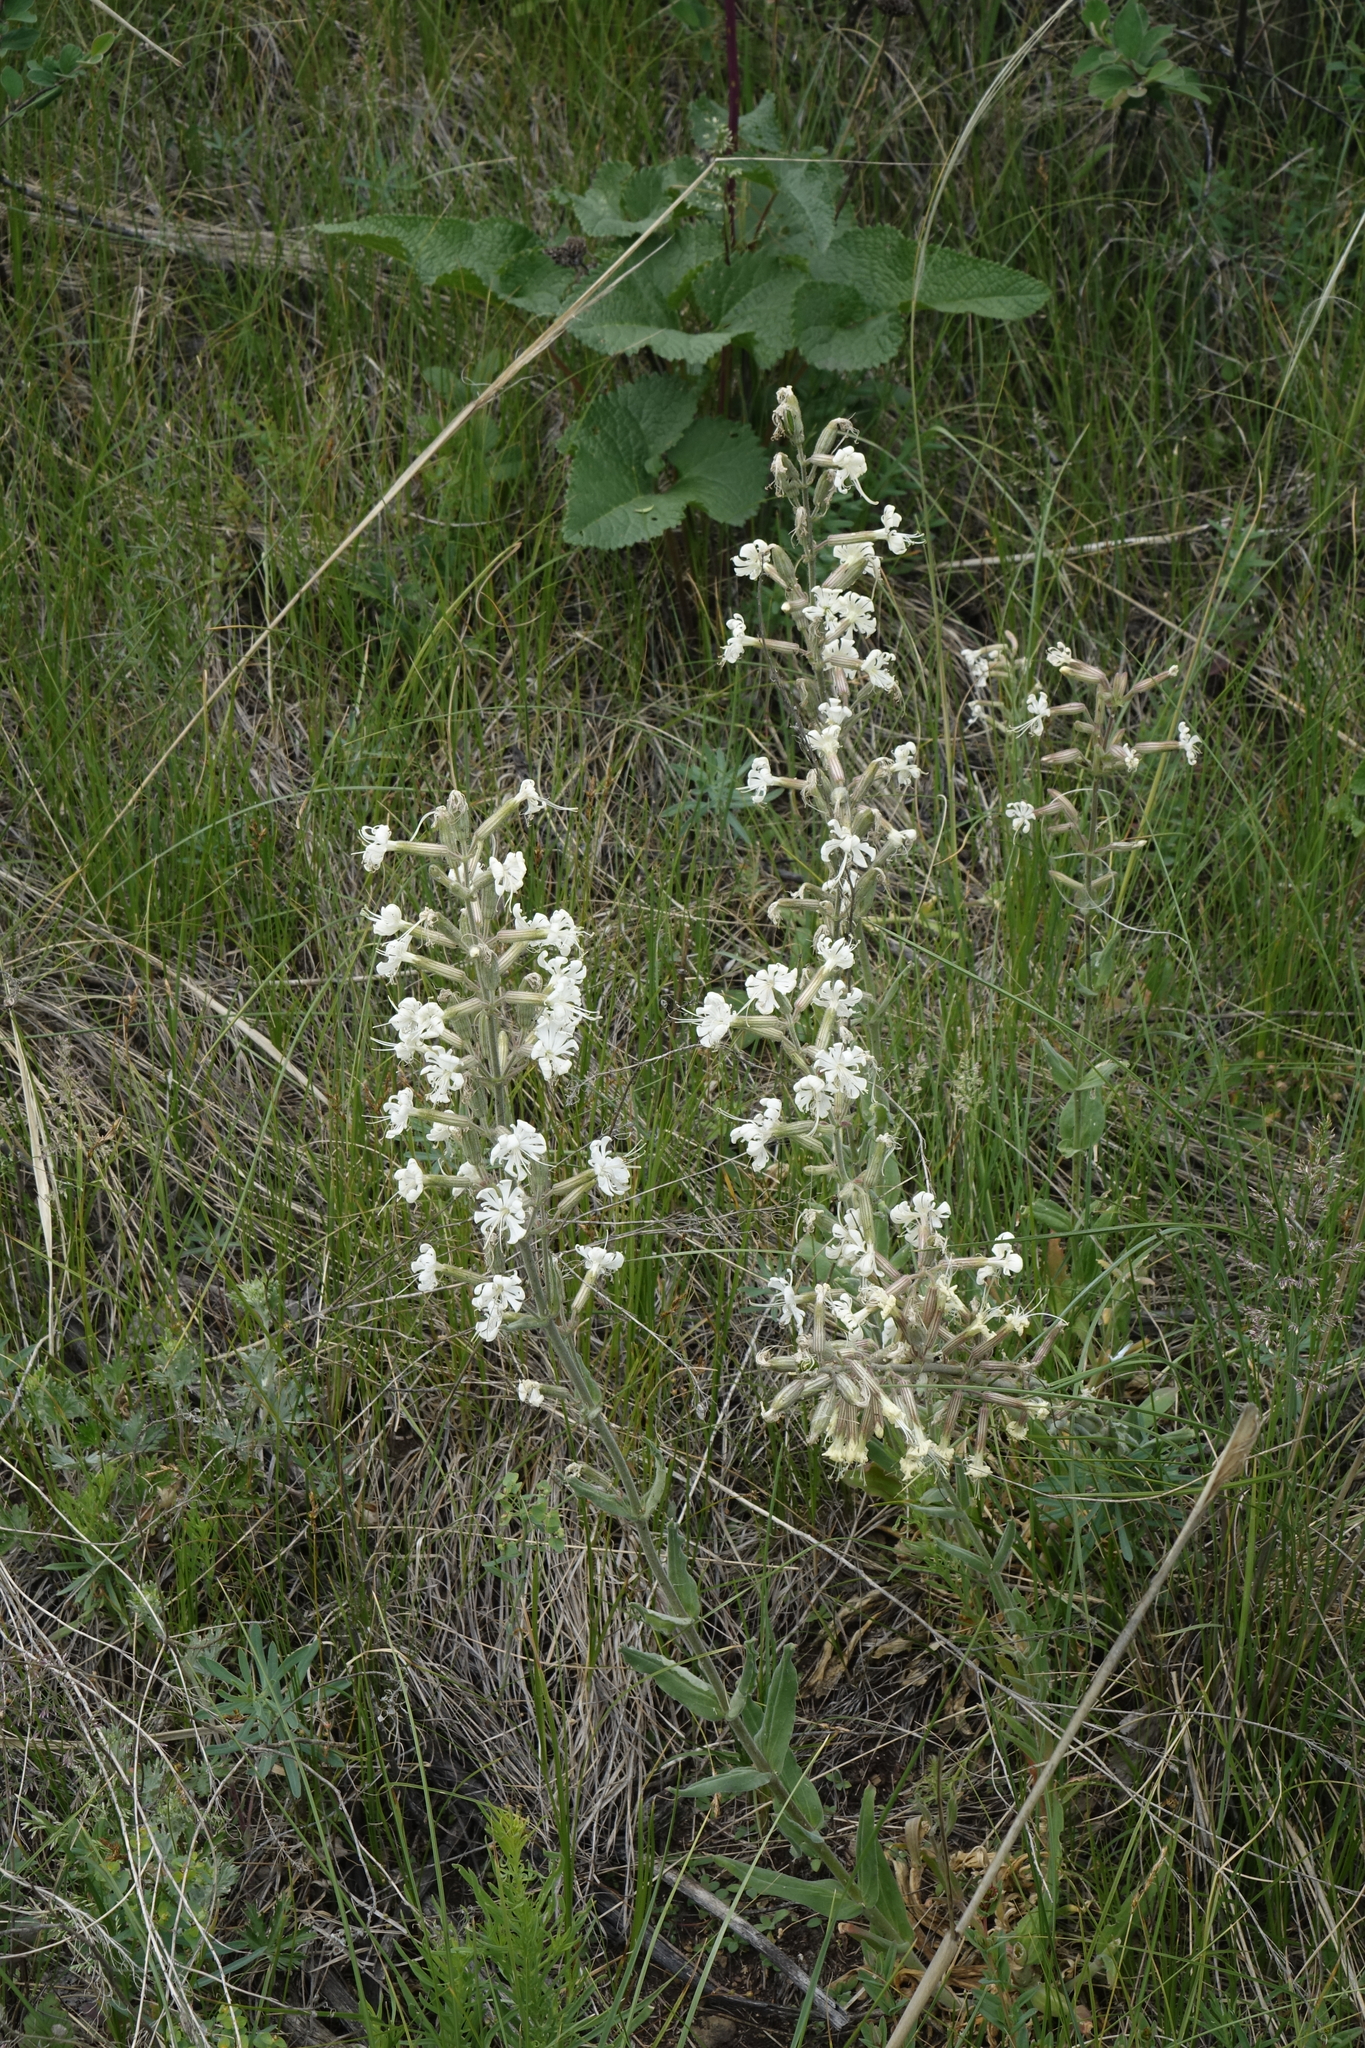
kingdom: Plantae
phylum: Tracheophyta
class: Magnoliopsida
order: Caryophyllales
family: Caryophyllaceae
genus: Silene
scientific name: Silene viscosa
